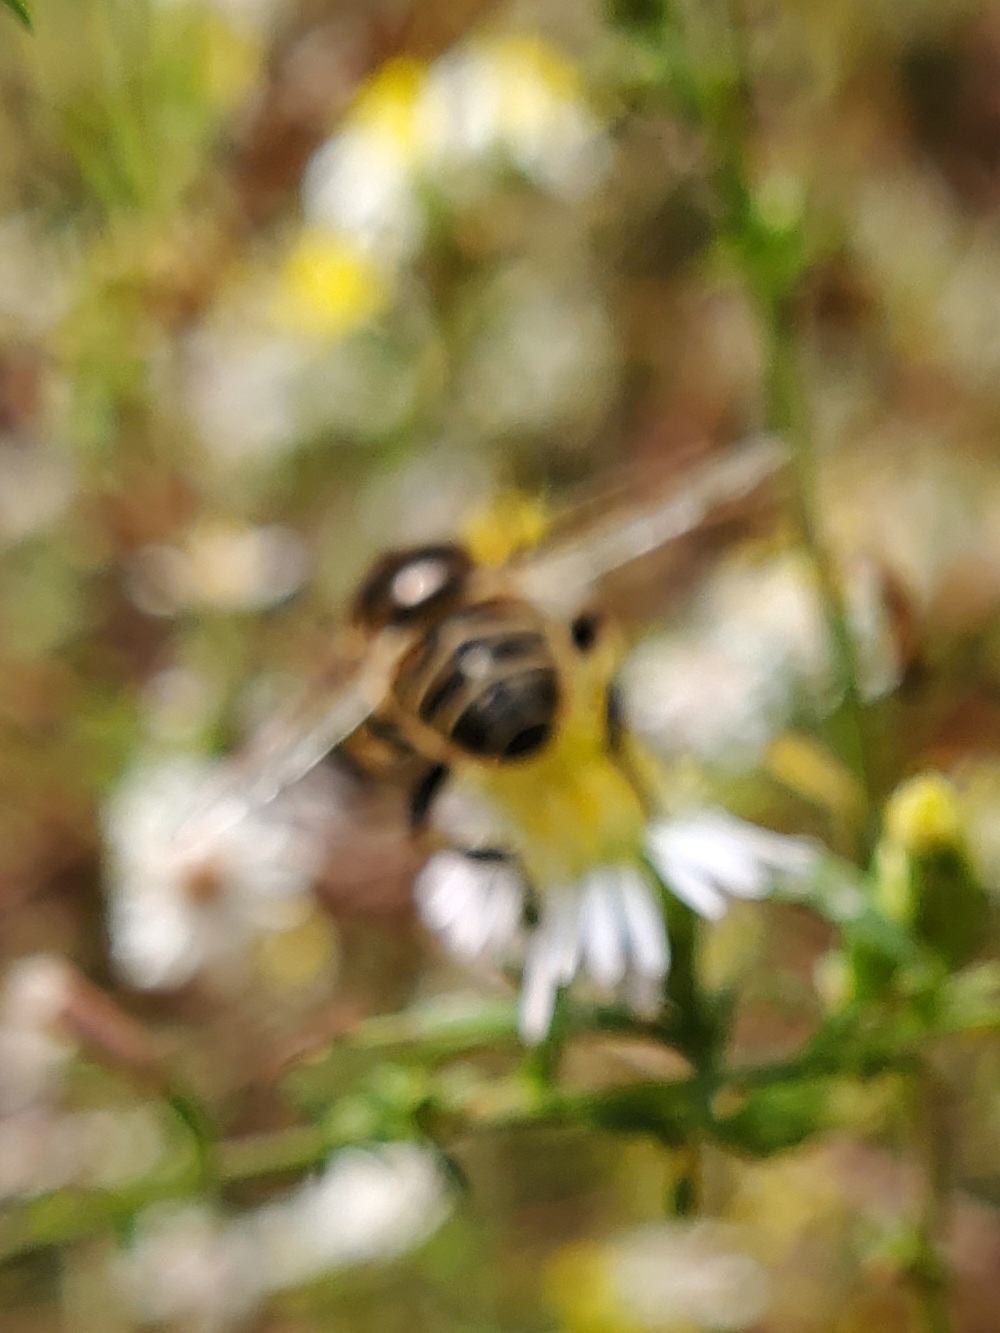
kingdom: Animalia
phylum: Arthropoda
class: Insecta
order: Diptera
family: Syrphidae
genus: Eristalis
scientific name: Eristalis dimidiata
